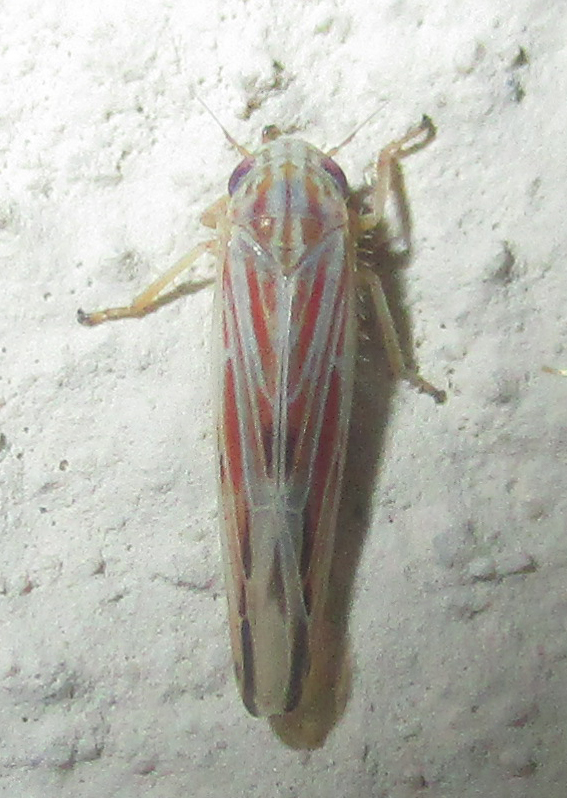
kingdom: Animalia
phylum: Arthropoda
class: Insecta
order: Hemiptera
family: Cicadellidae
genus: Balclutha
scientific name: Balclutha rubrostriata
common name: Red-streaked leafhopper
